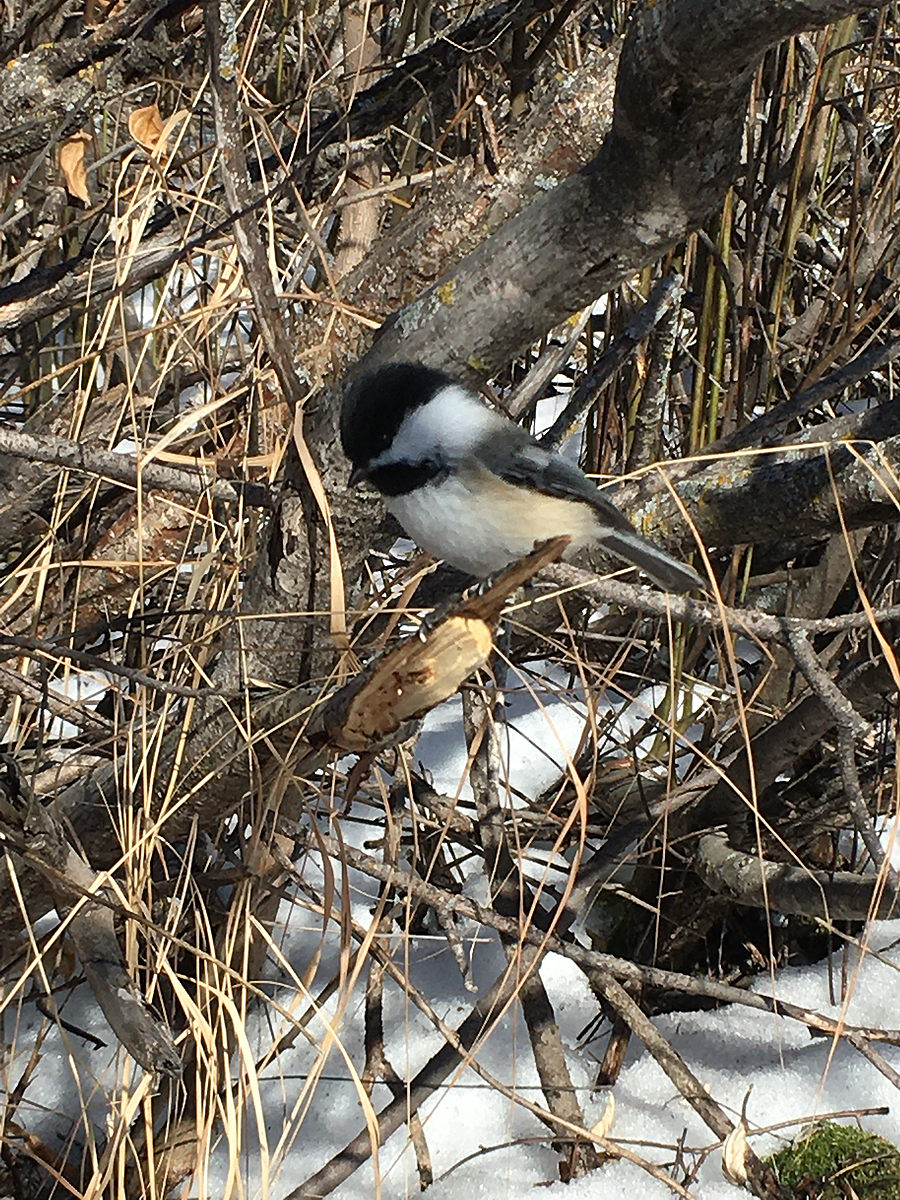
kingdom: Animalia
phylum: Chordata
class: Aves
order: Passeriformes
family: Paridae
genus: Poecile
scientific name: Poecile atricapillus
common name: Black-capped chickadee
